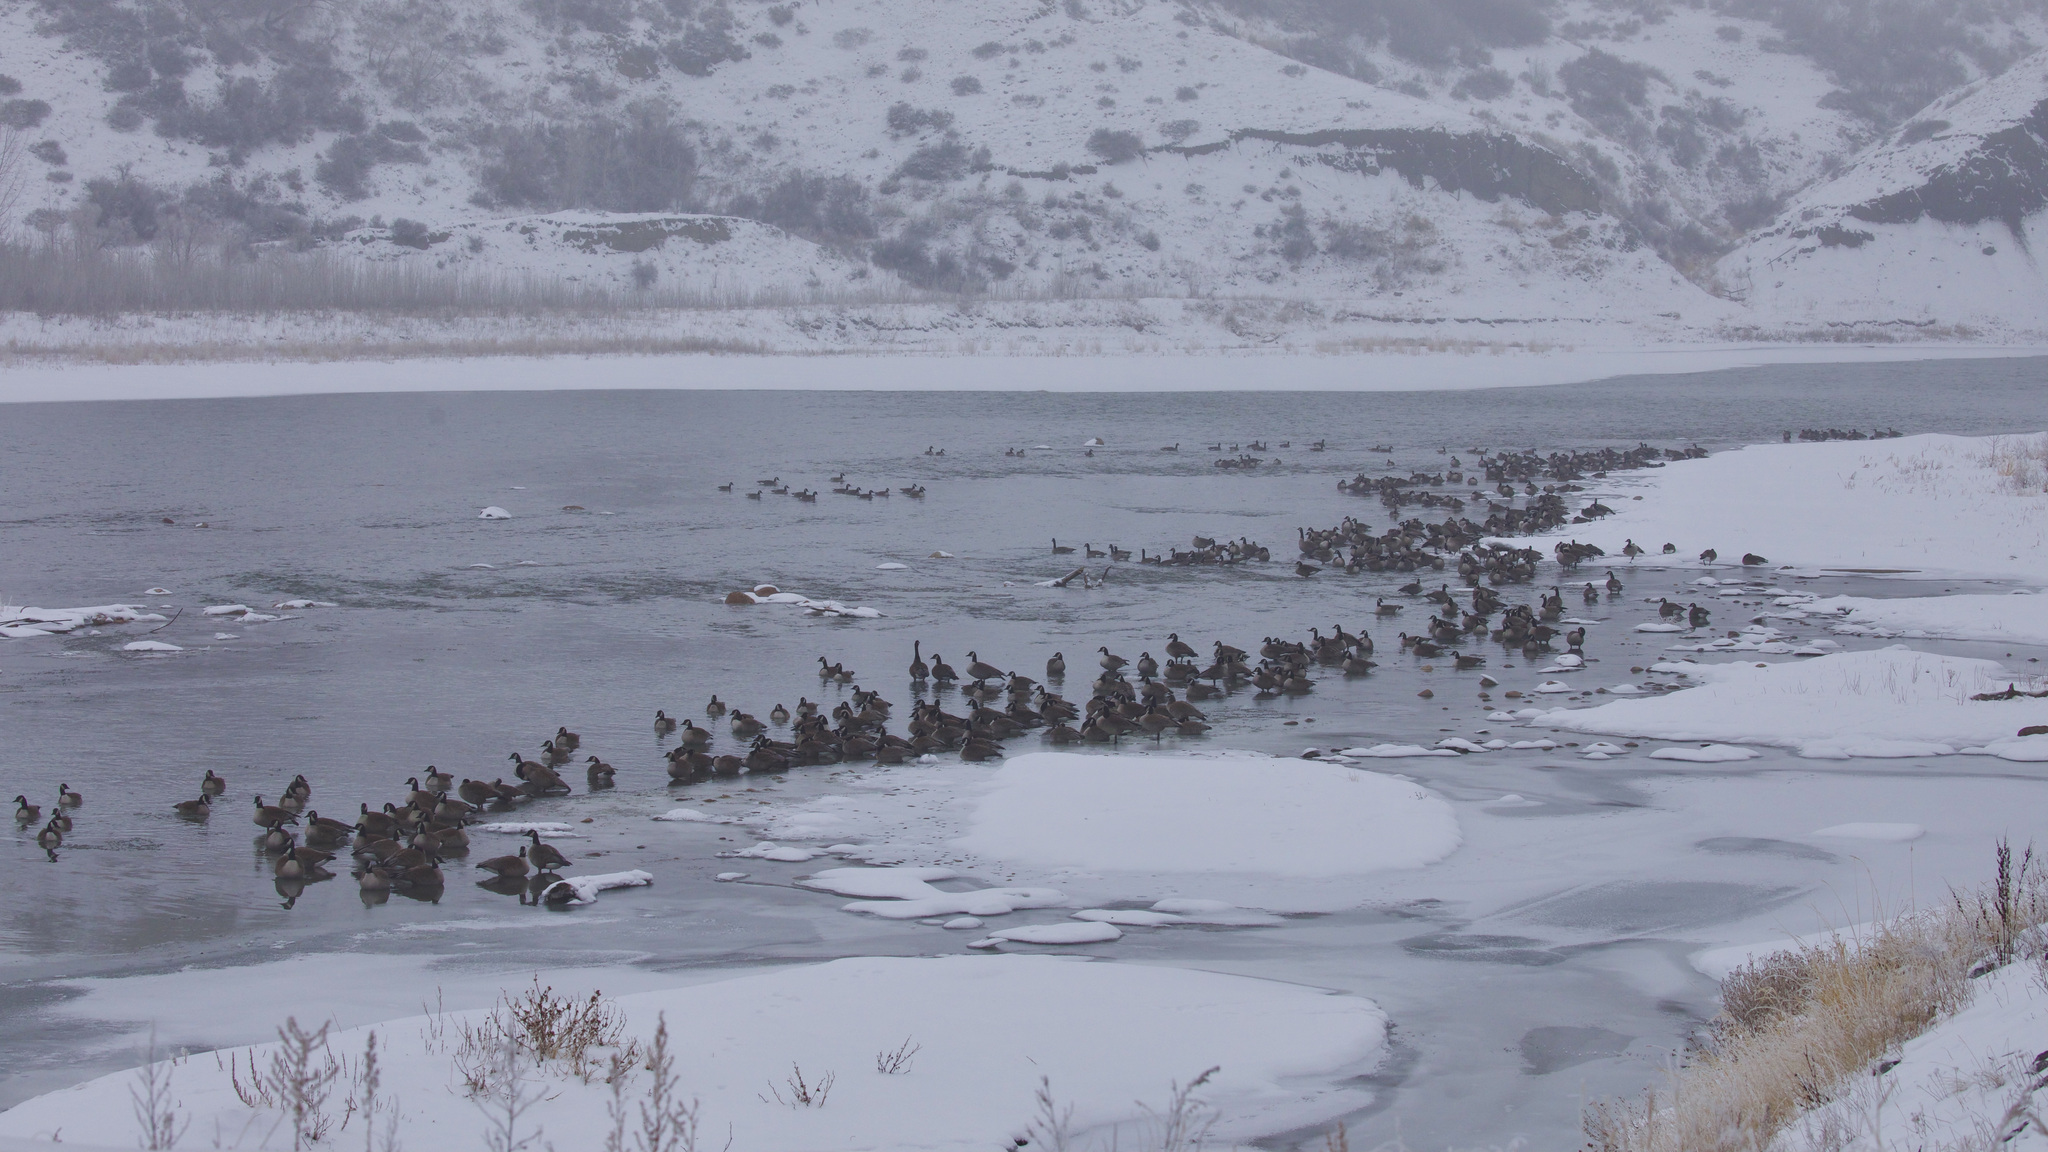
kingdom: Animalia
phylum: Chordata
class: Aves
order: Anseriformes
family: Anatidae
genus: Branta
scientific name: Branta canadensis
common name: Canada goose
